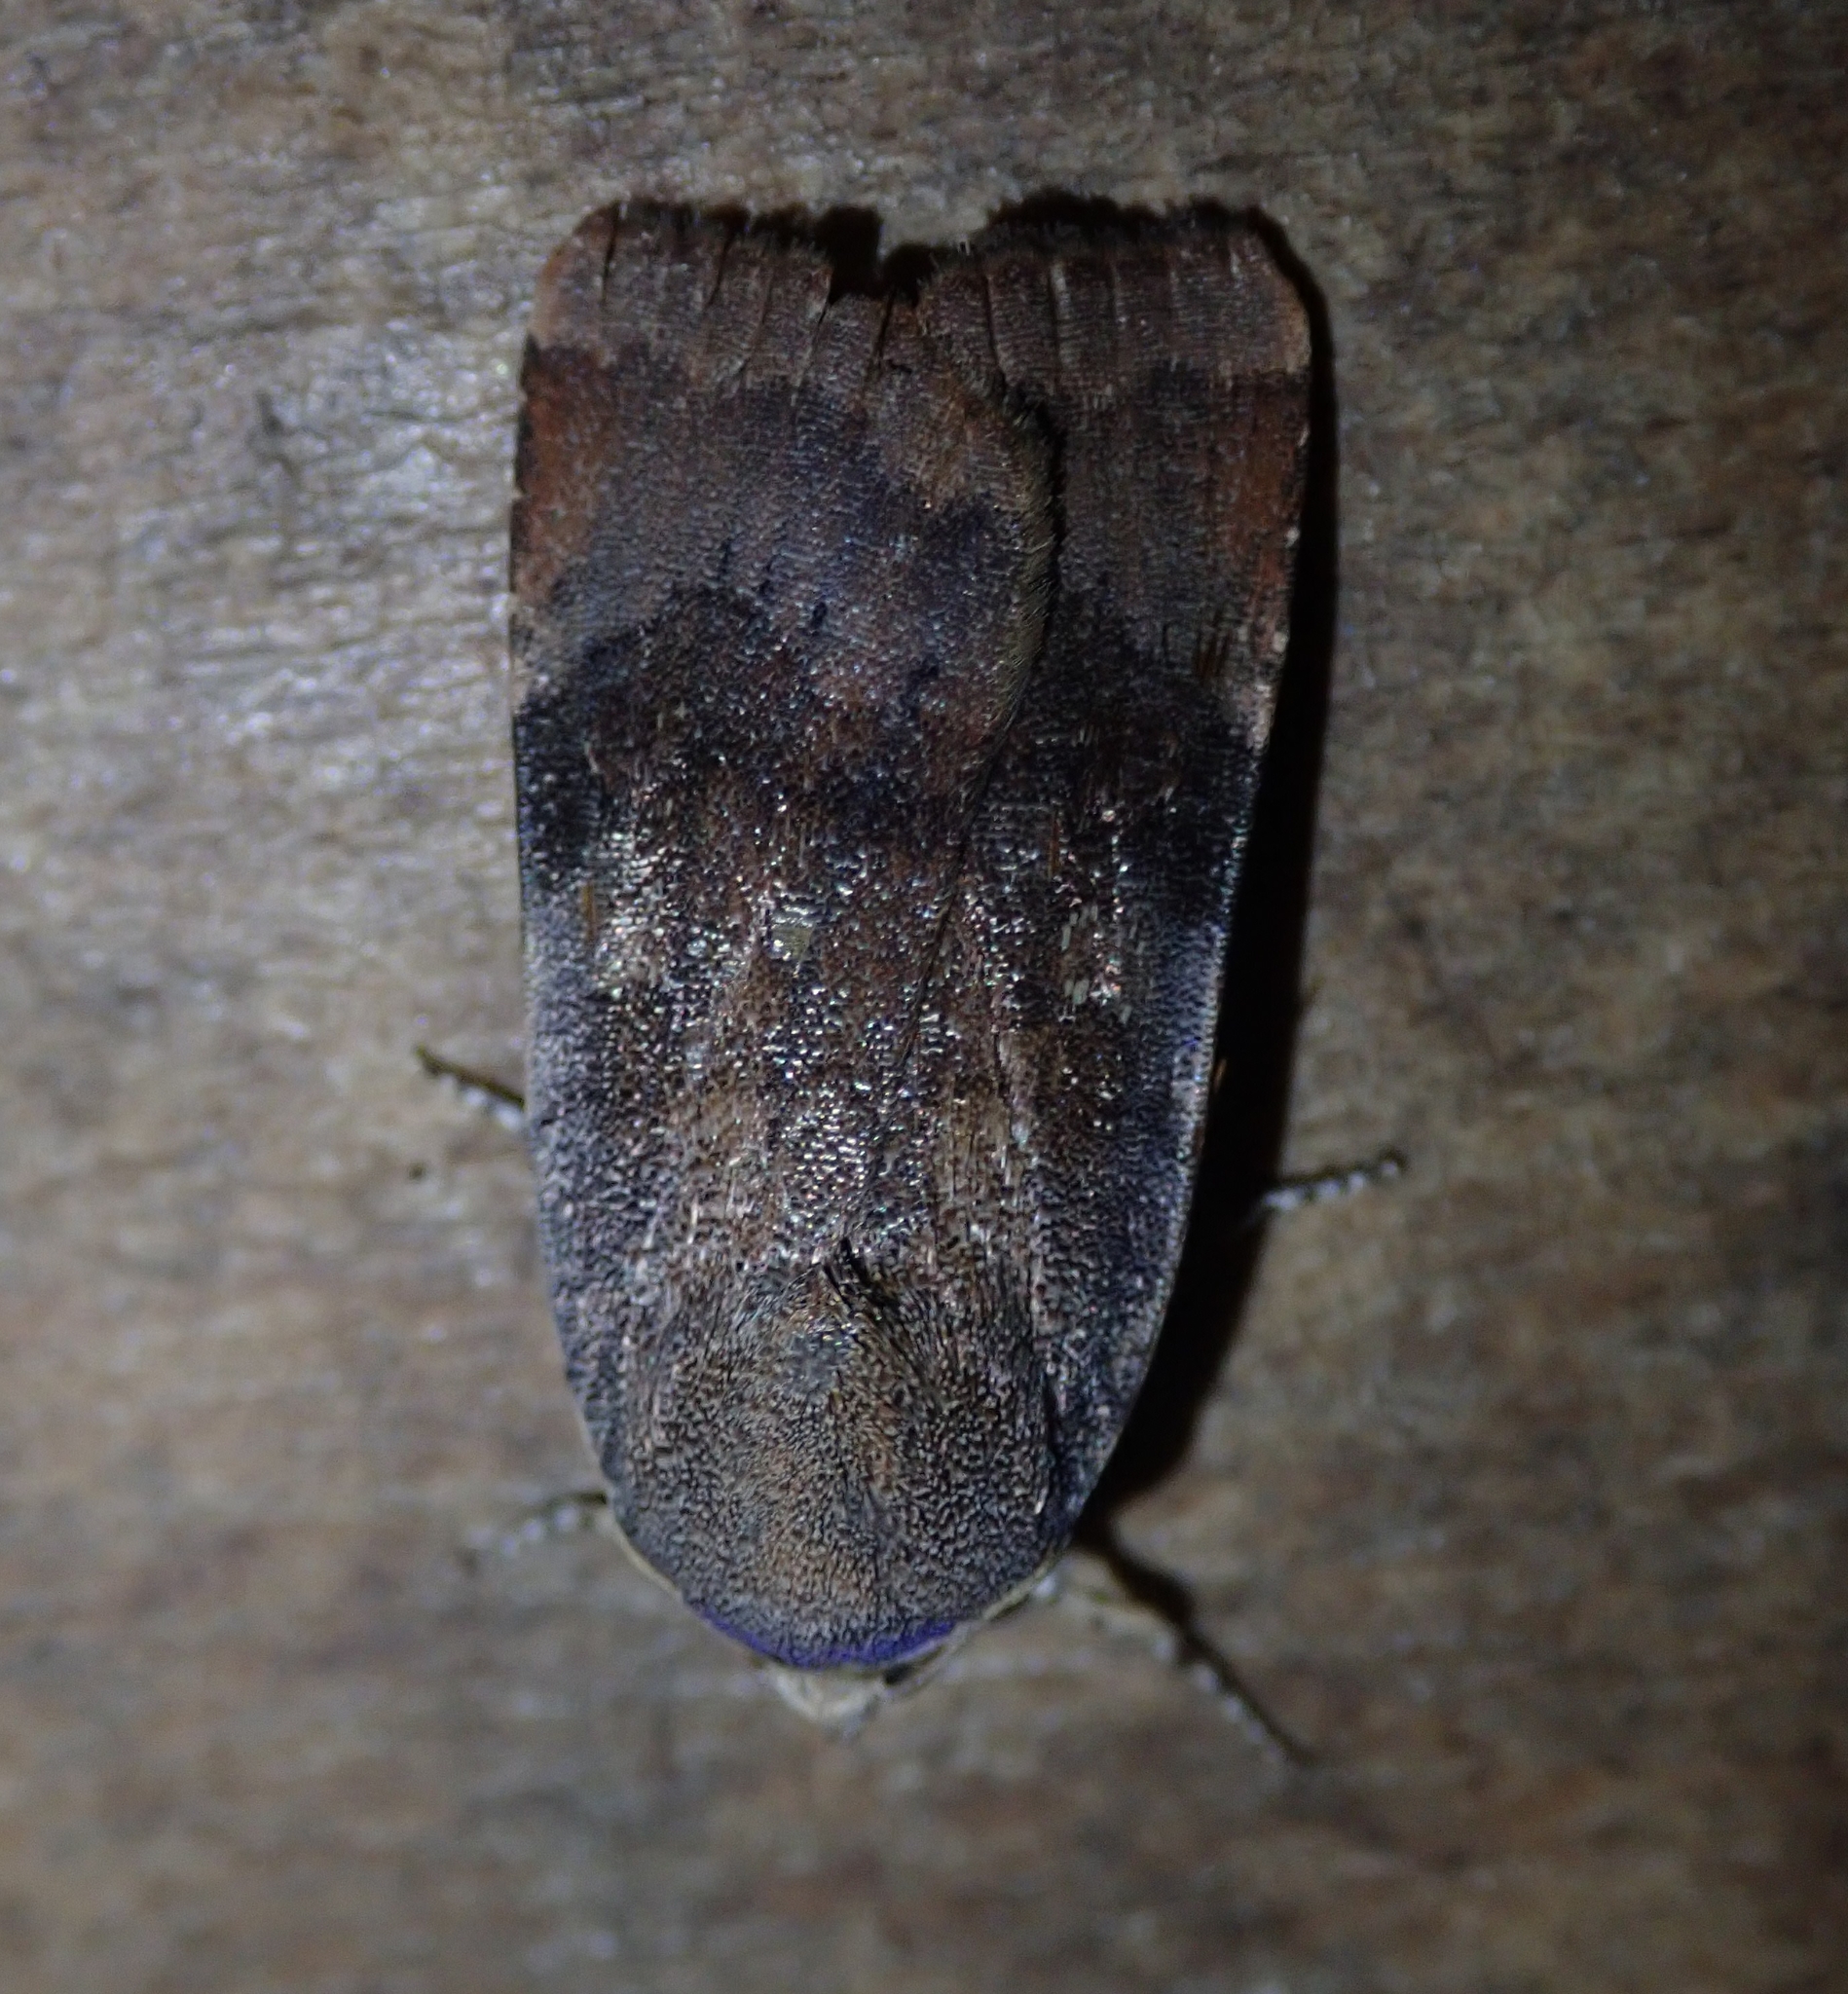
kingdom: Animalia
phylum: Arthropoda
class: Insecta
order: Lepidoptera
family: Noctuidae
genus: Noctua
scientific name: Noctua janthina
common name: Langmaid's yellow underwing
